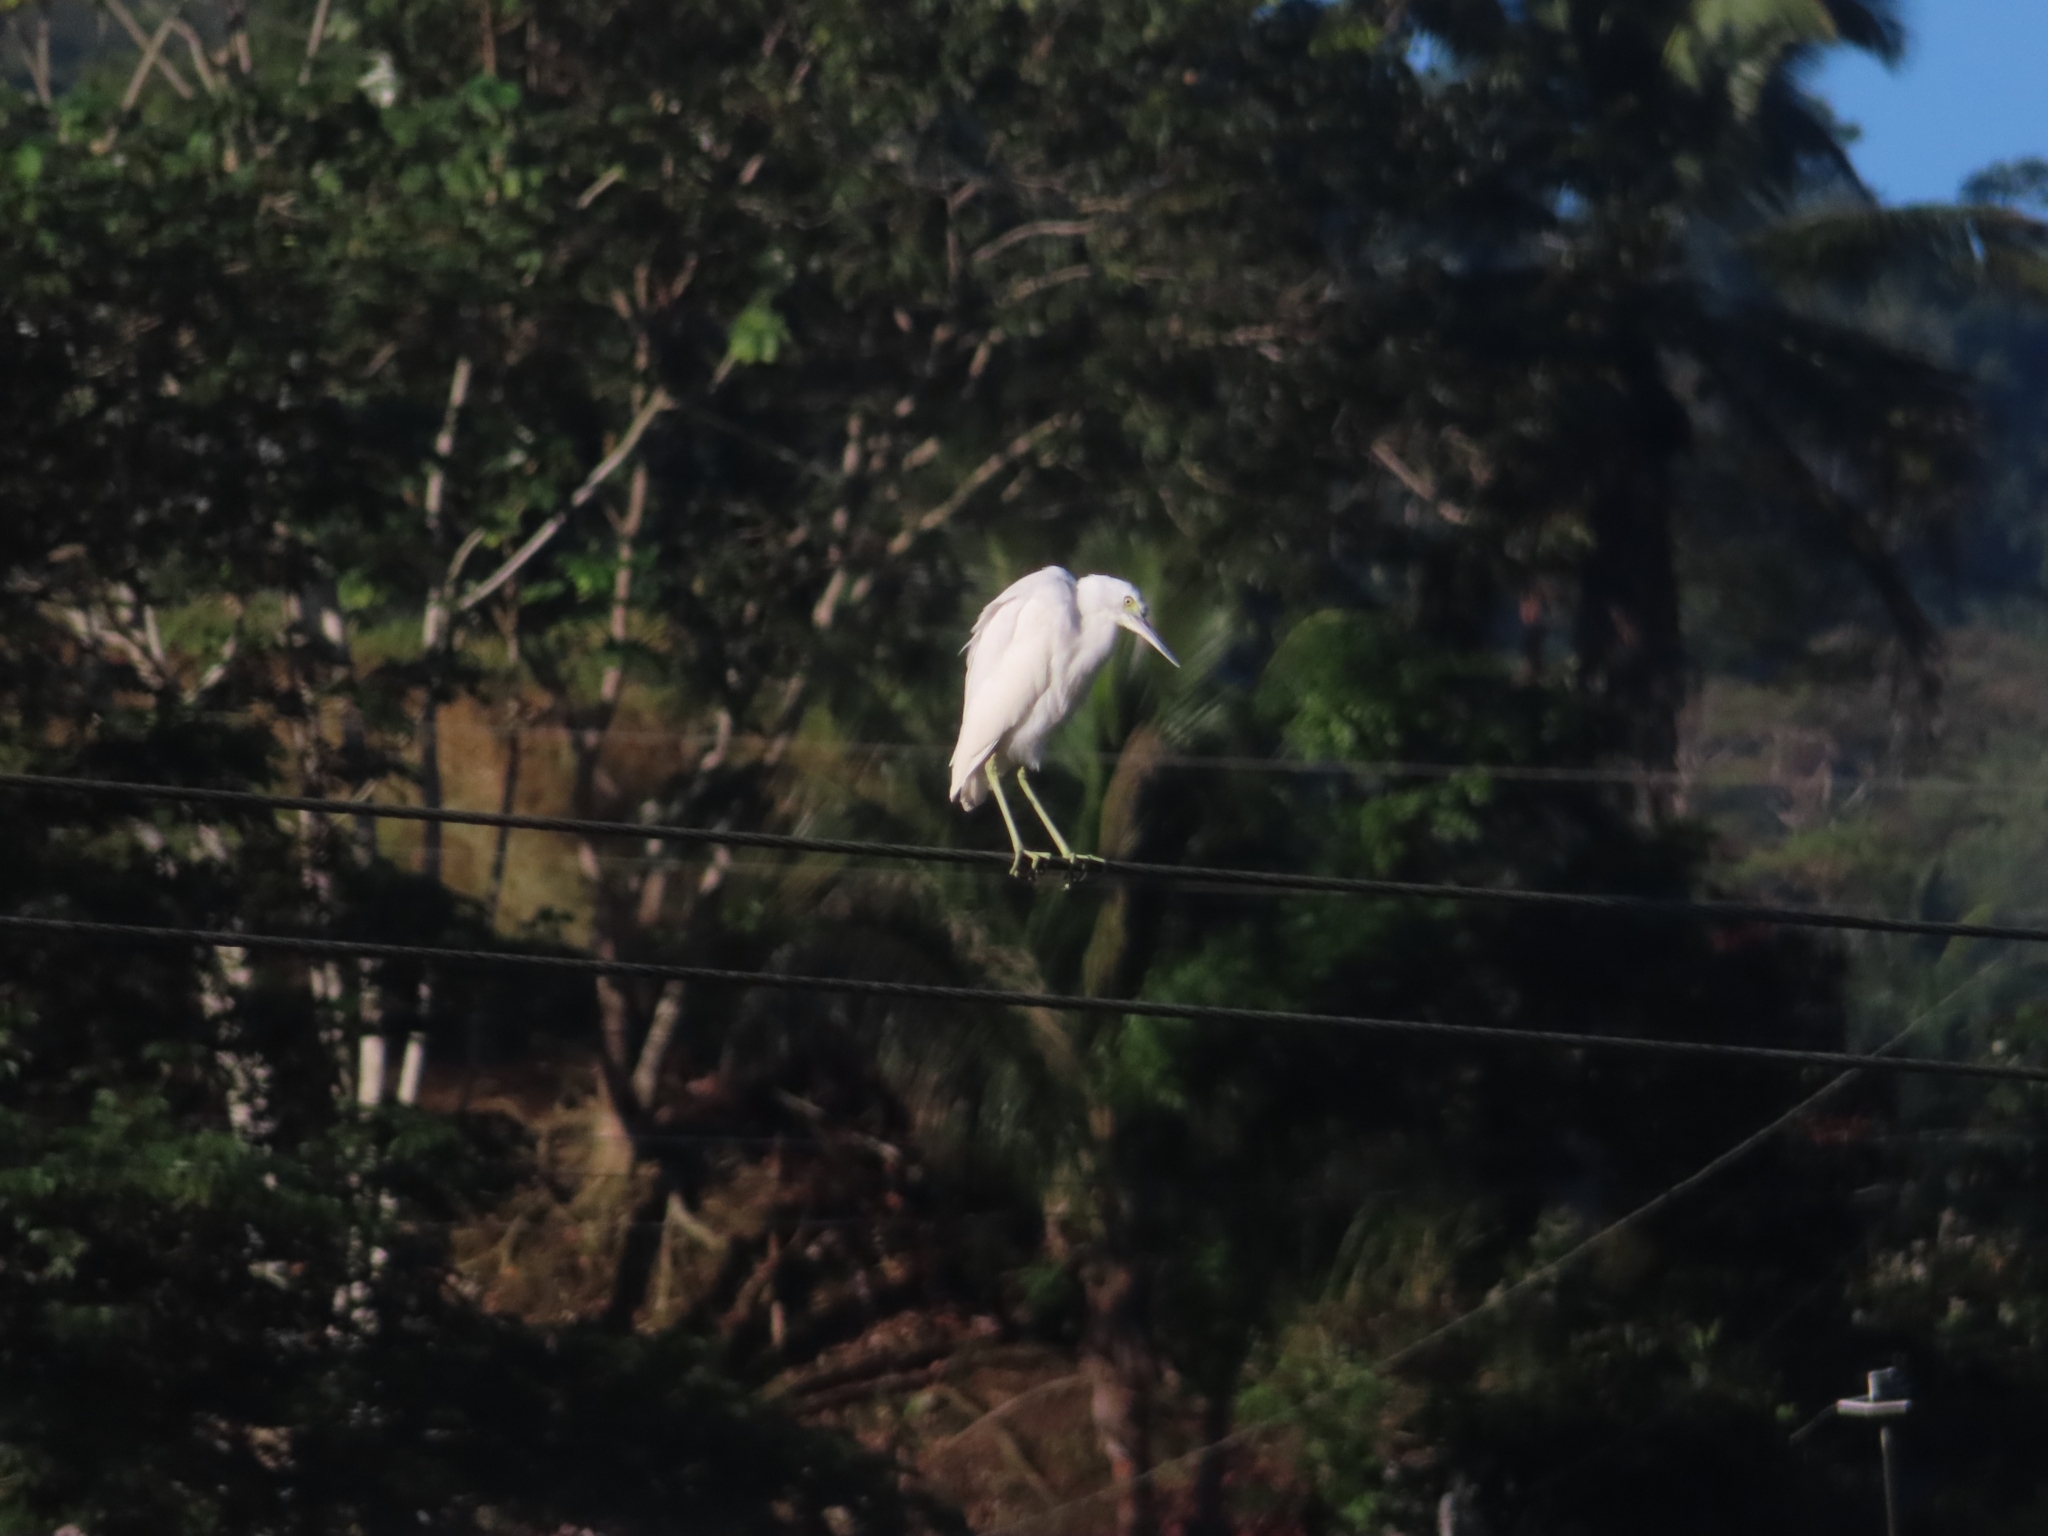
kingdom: Animalia
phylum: Chordata
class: Aves
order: Pelecaniformes
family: Ardeidae
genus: Egretta
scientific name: Egretta caerulea
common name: Little blue heron
